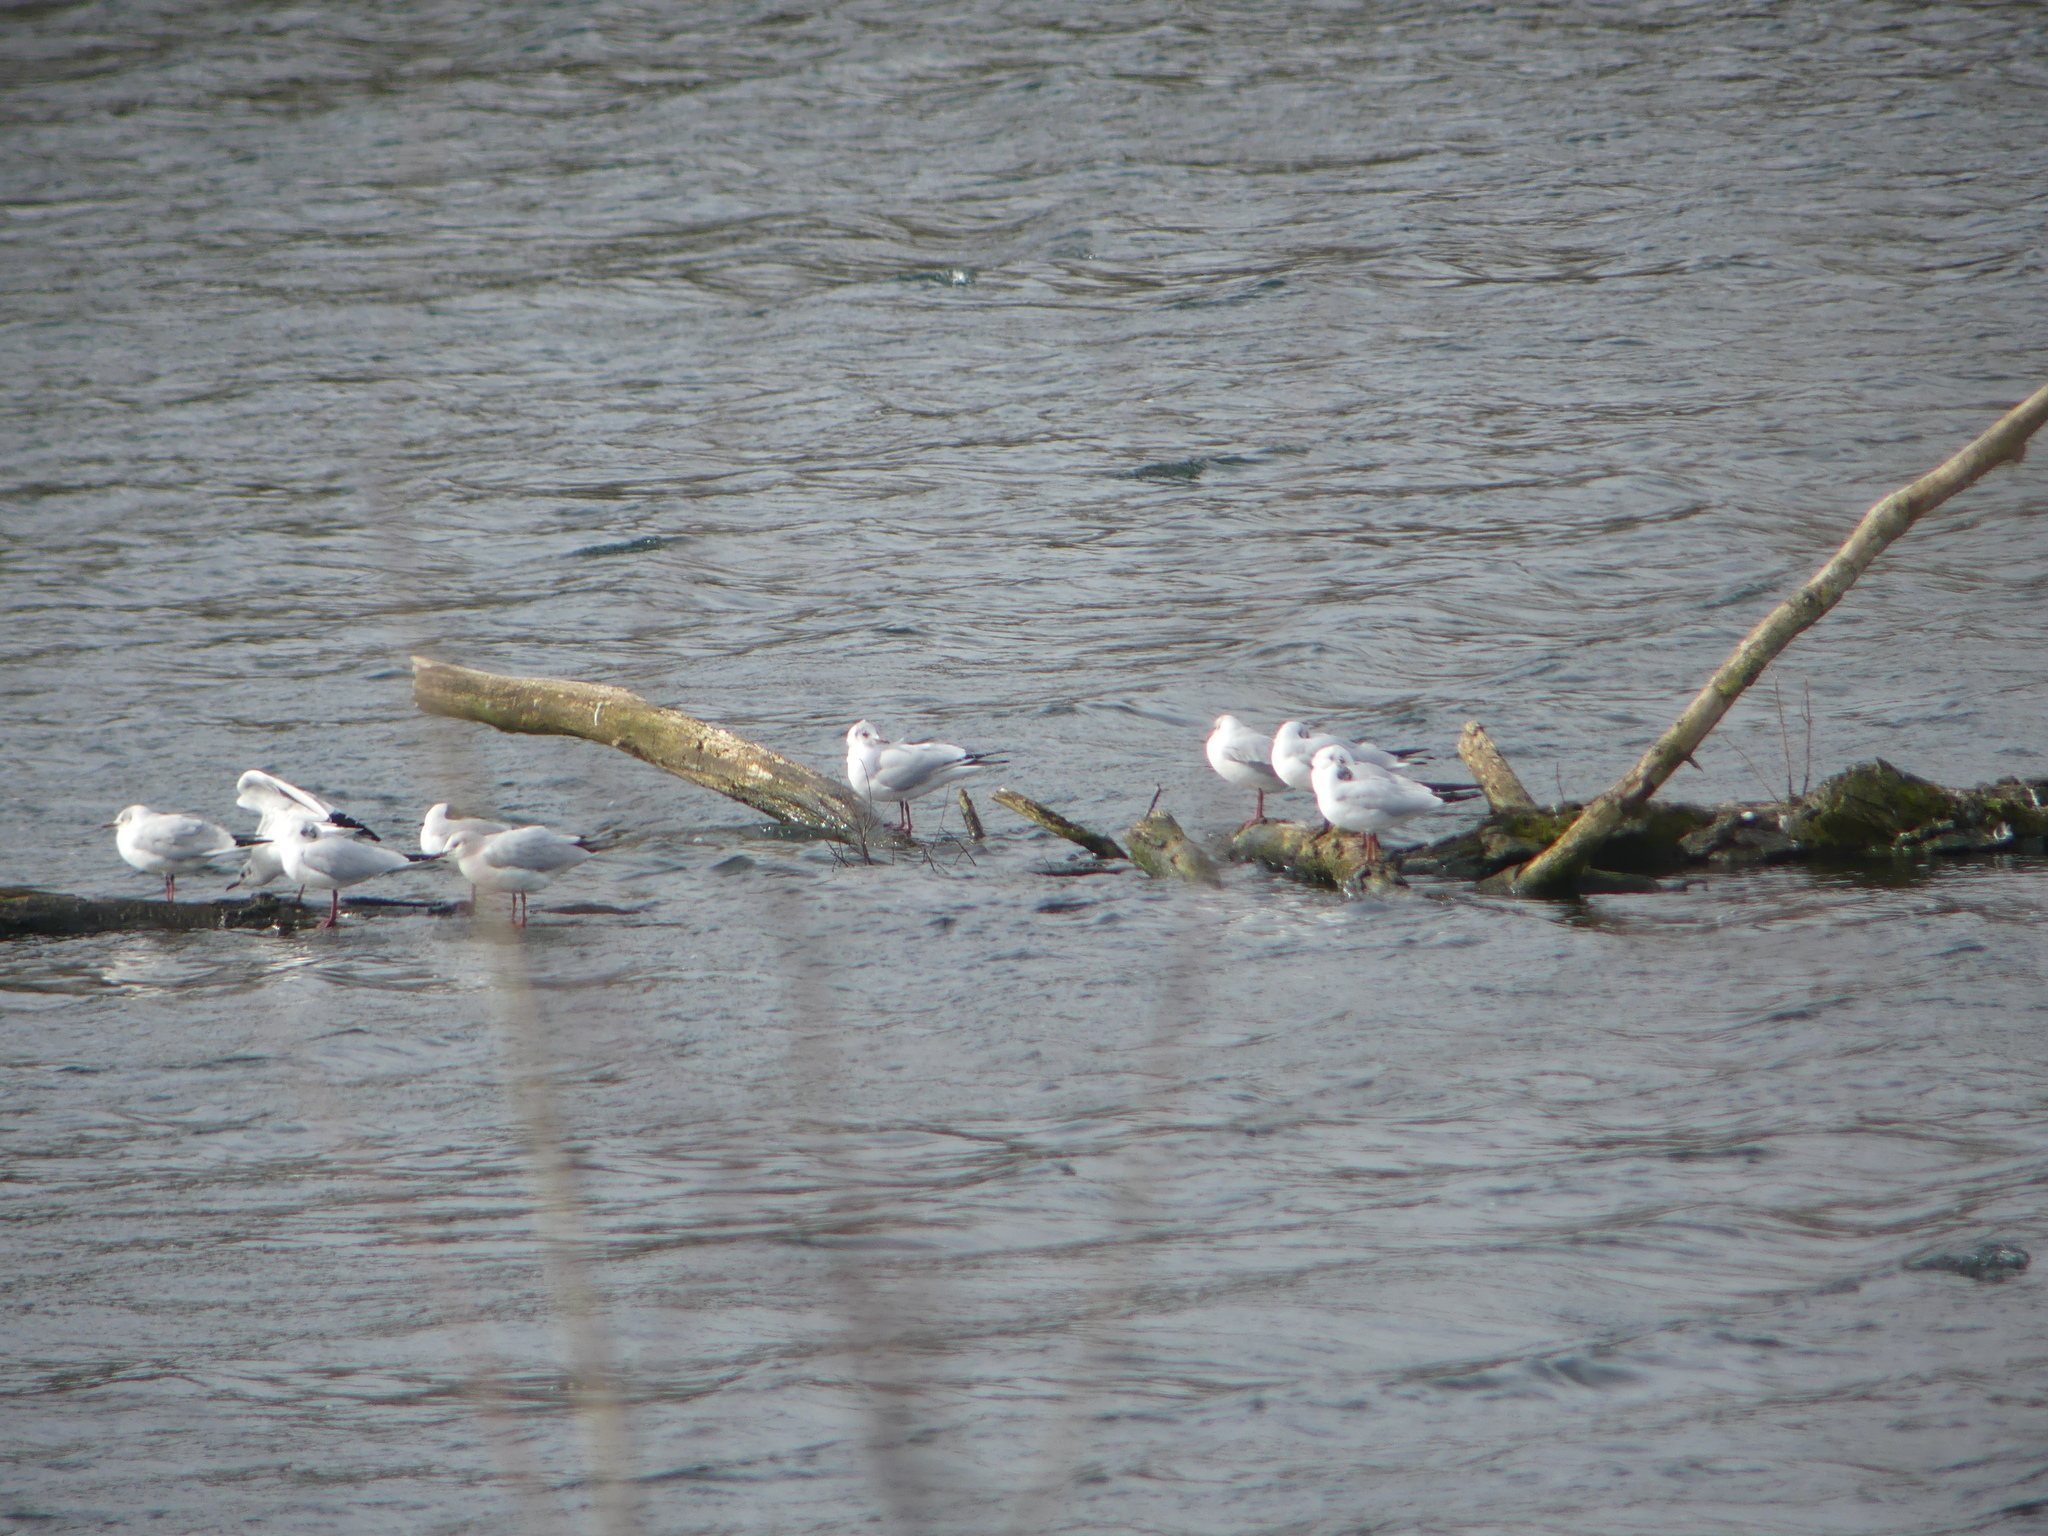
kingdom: Animalia
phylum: Chordata
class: Aves
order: Charadriiformes
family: Laridae
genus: Chroicocephalus
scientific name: Chroicocephalus ridibundus
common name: Black-headed gull
